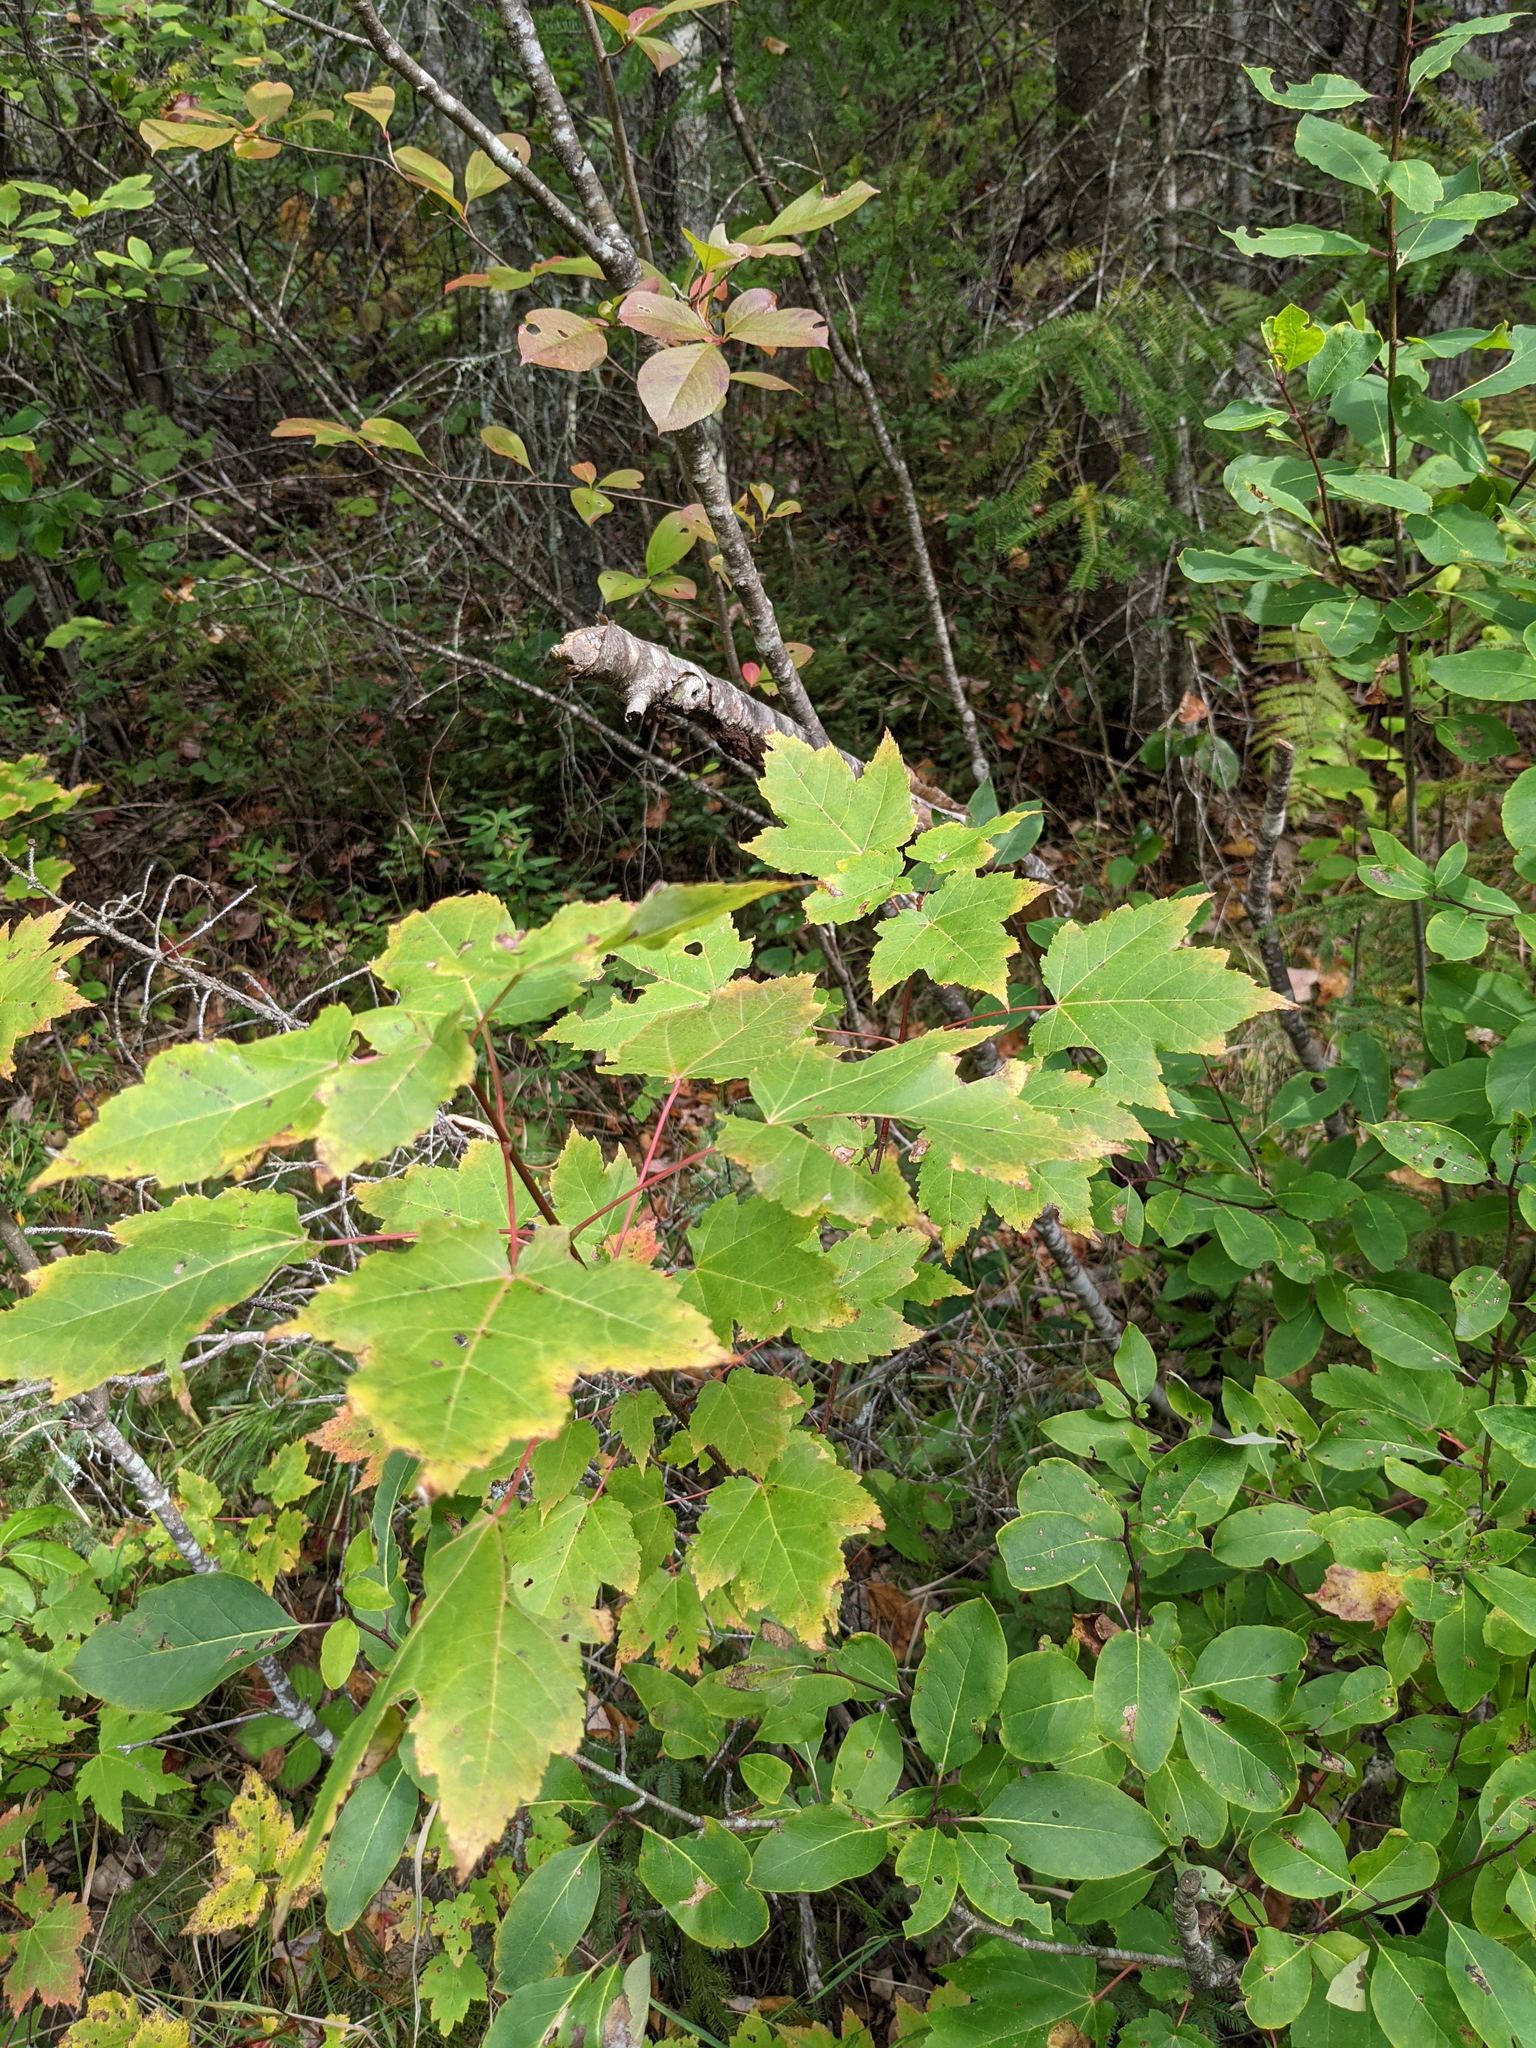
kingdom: Plantae
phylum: Tracheophyta
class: Magnoliopsida
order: Sapindales
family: Sapindaceae
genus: Acer
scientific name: Acer rubrum
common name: Red maple
